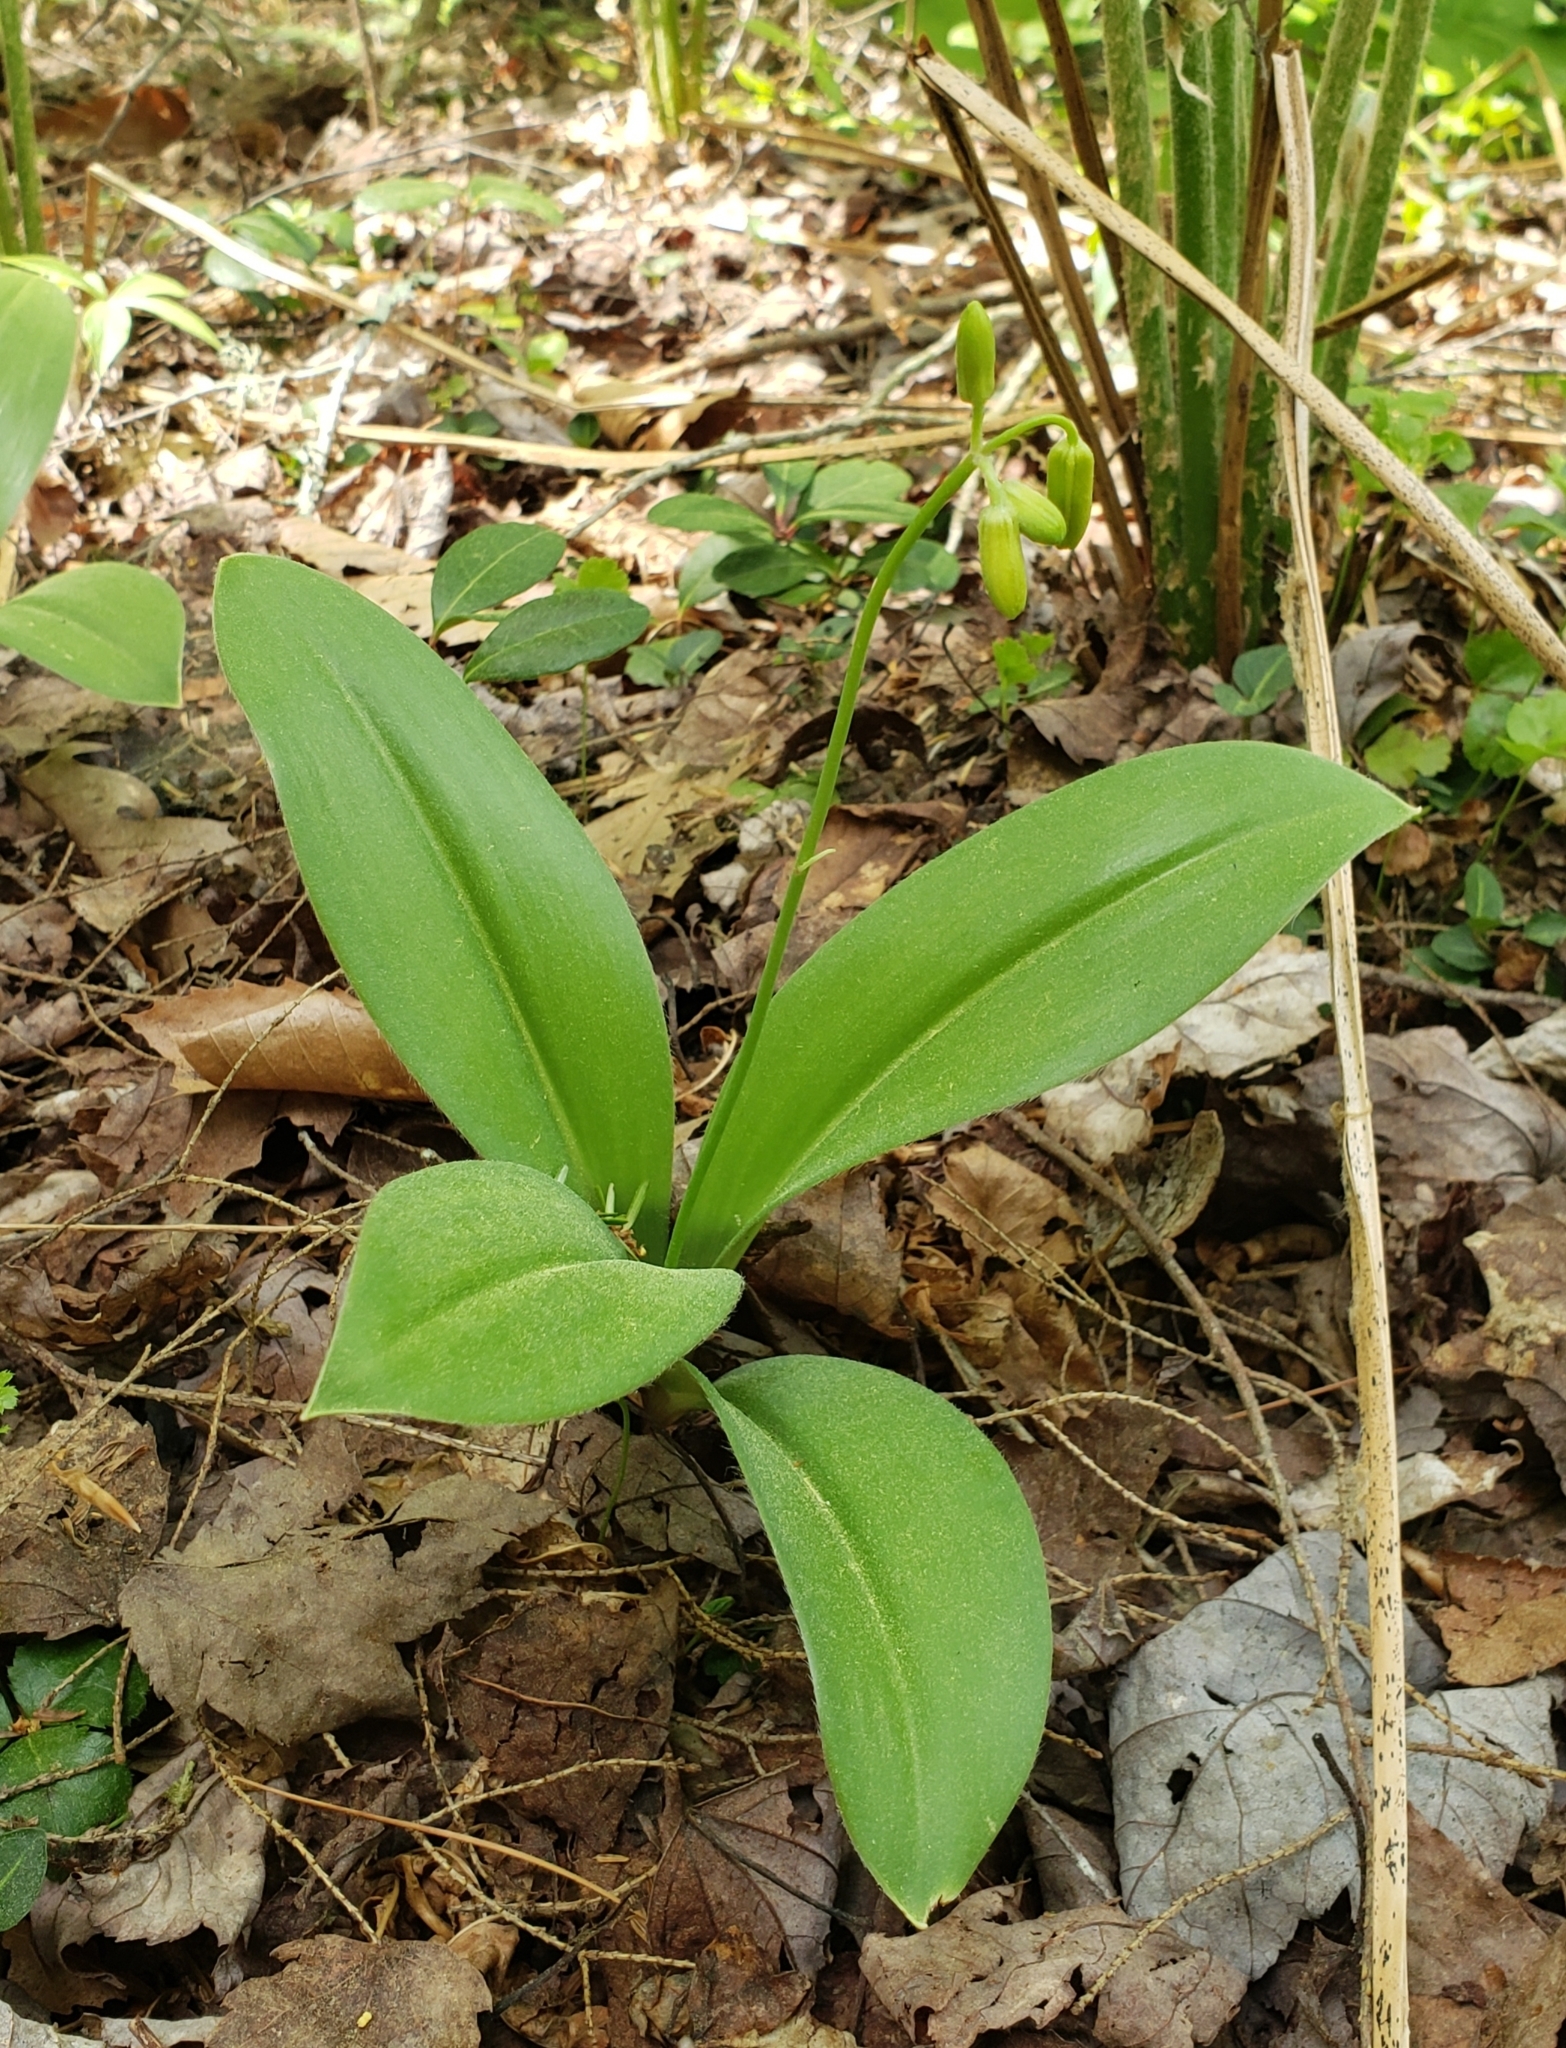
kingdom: Plantae
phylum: Tracheophyta
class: Liliopsida
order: Liliales
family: Liliaceae
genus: Clintonia
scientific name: Clintonia borealis
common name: Yellow clintonia
